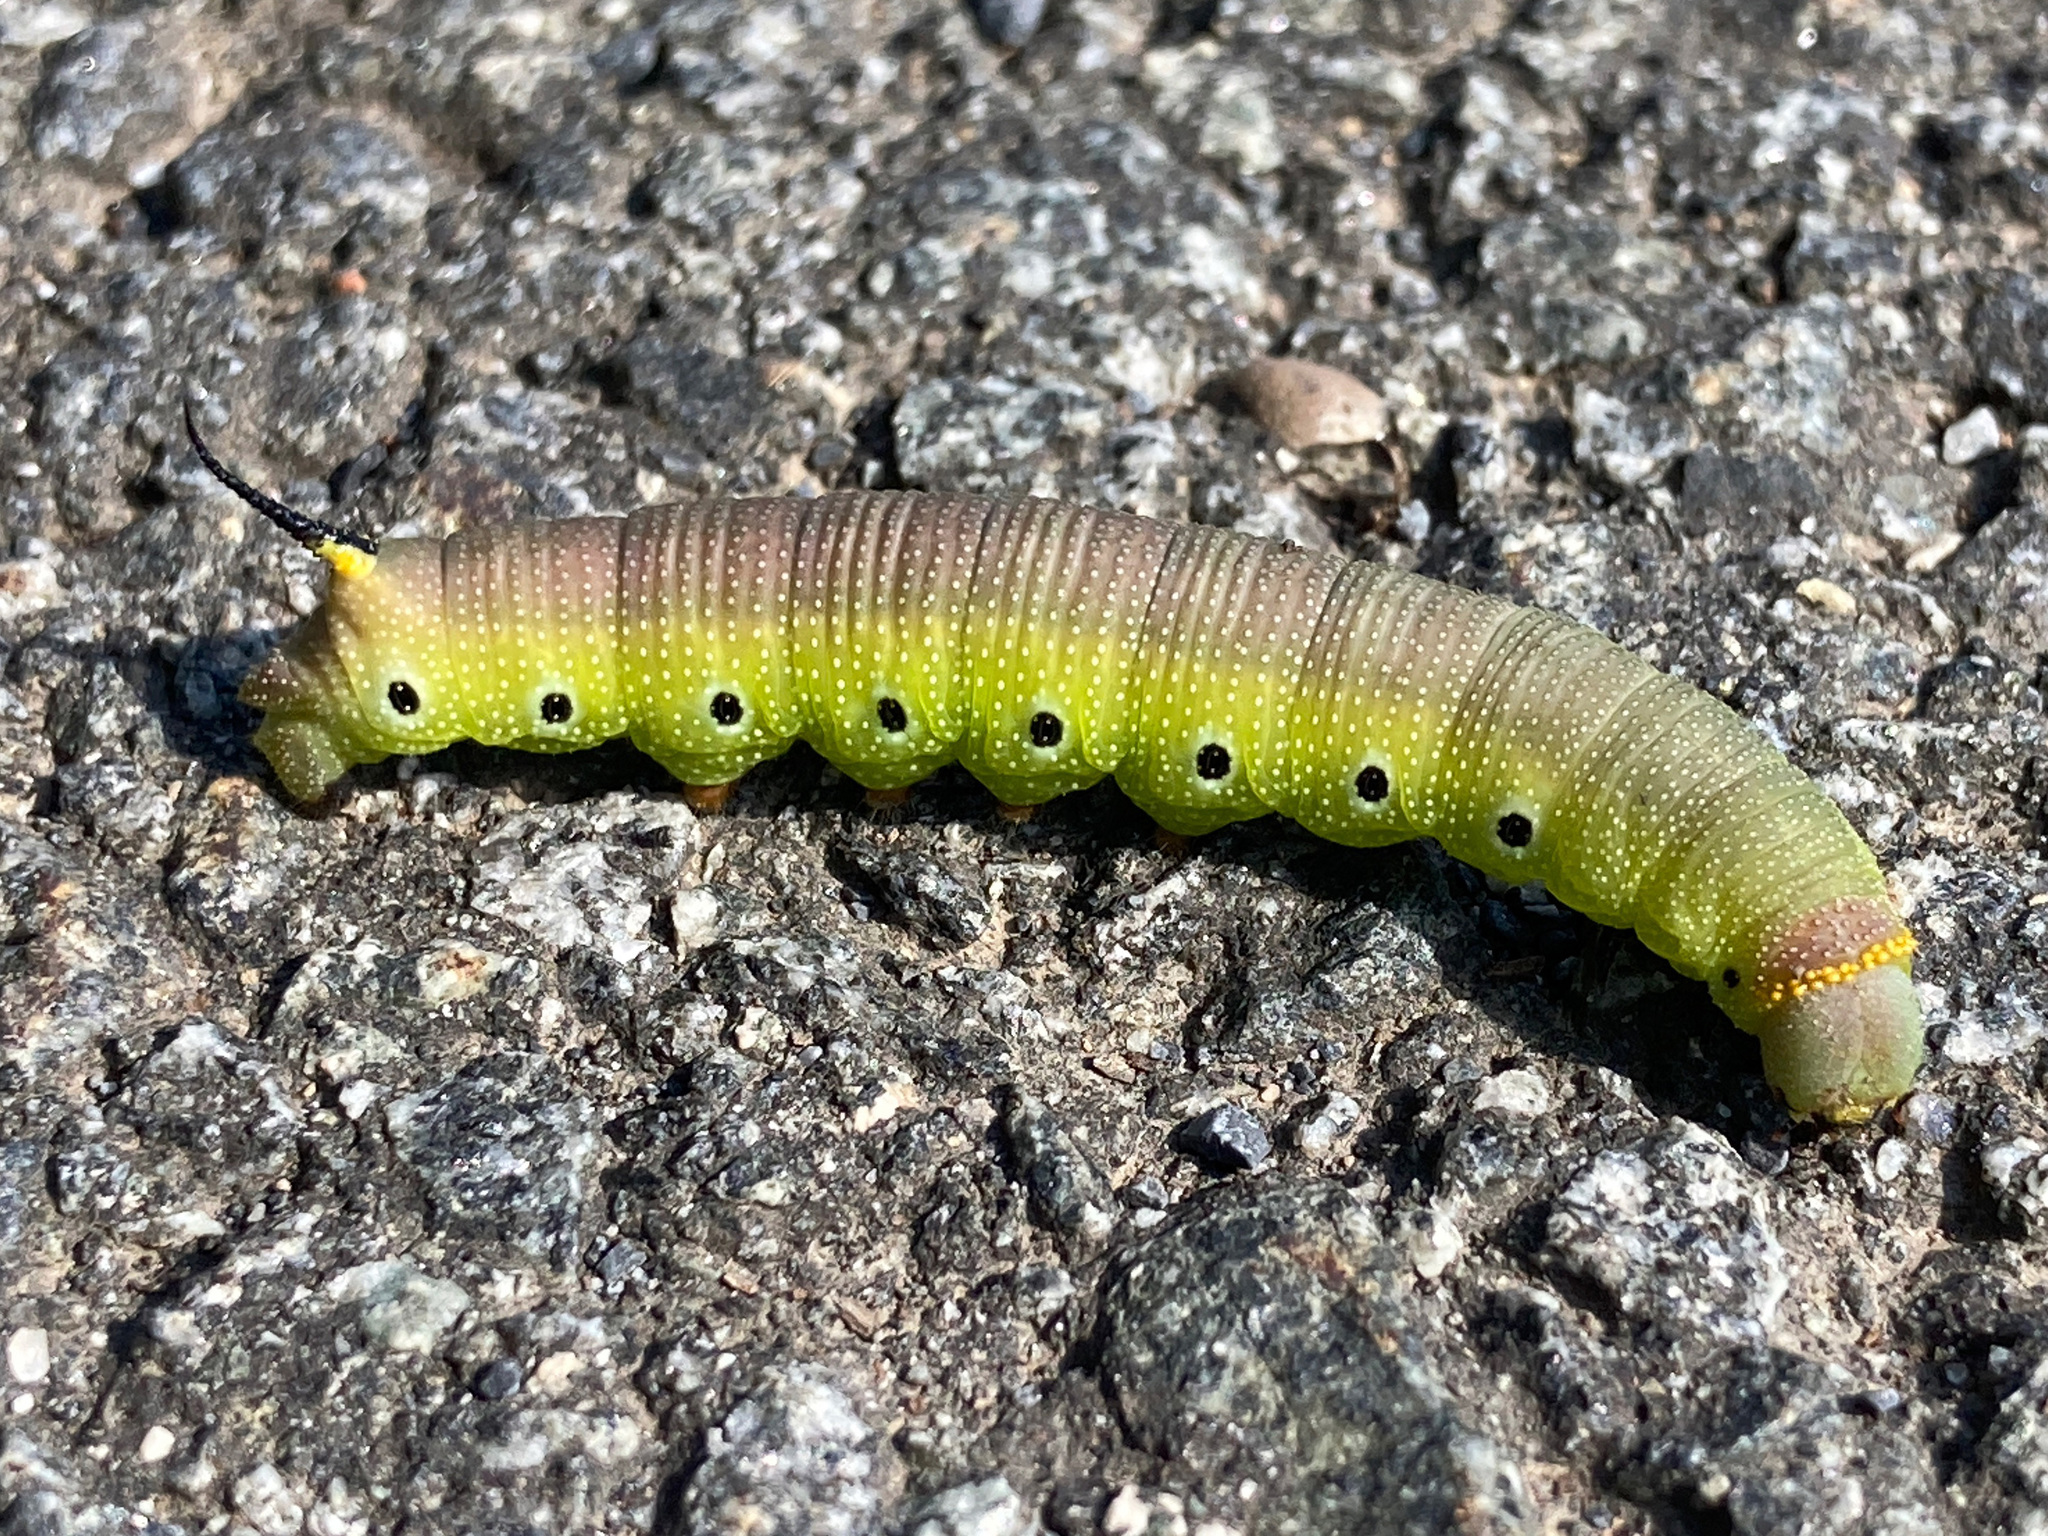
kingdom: Animalia
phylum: Arthropoda
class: Insecta
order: Lepidoptera
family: Sphingidae
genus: Hemaris
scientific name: Hemaris diffinis
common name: Bumblebee moth
